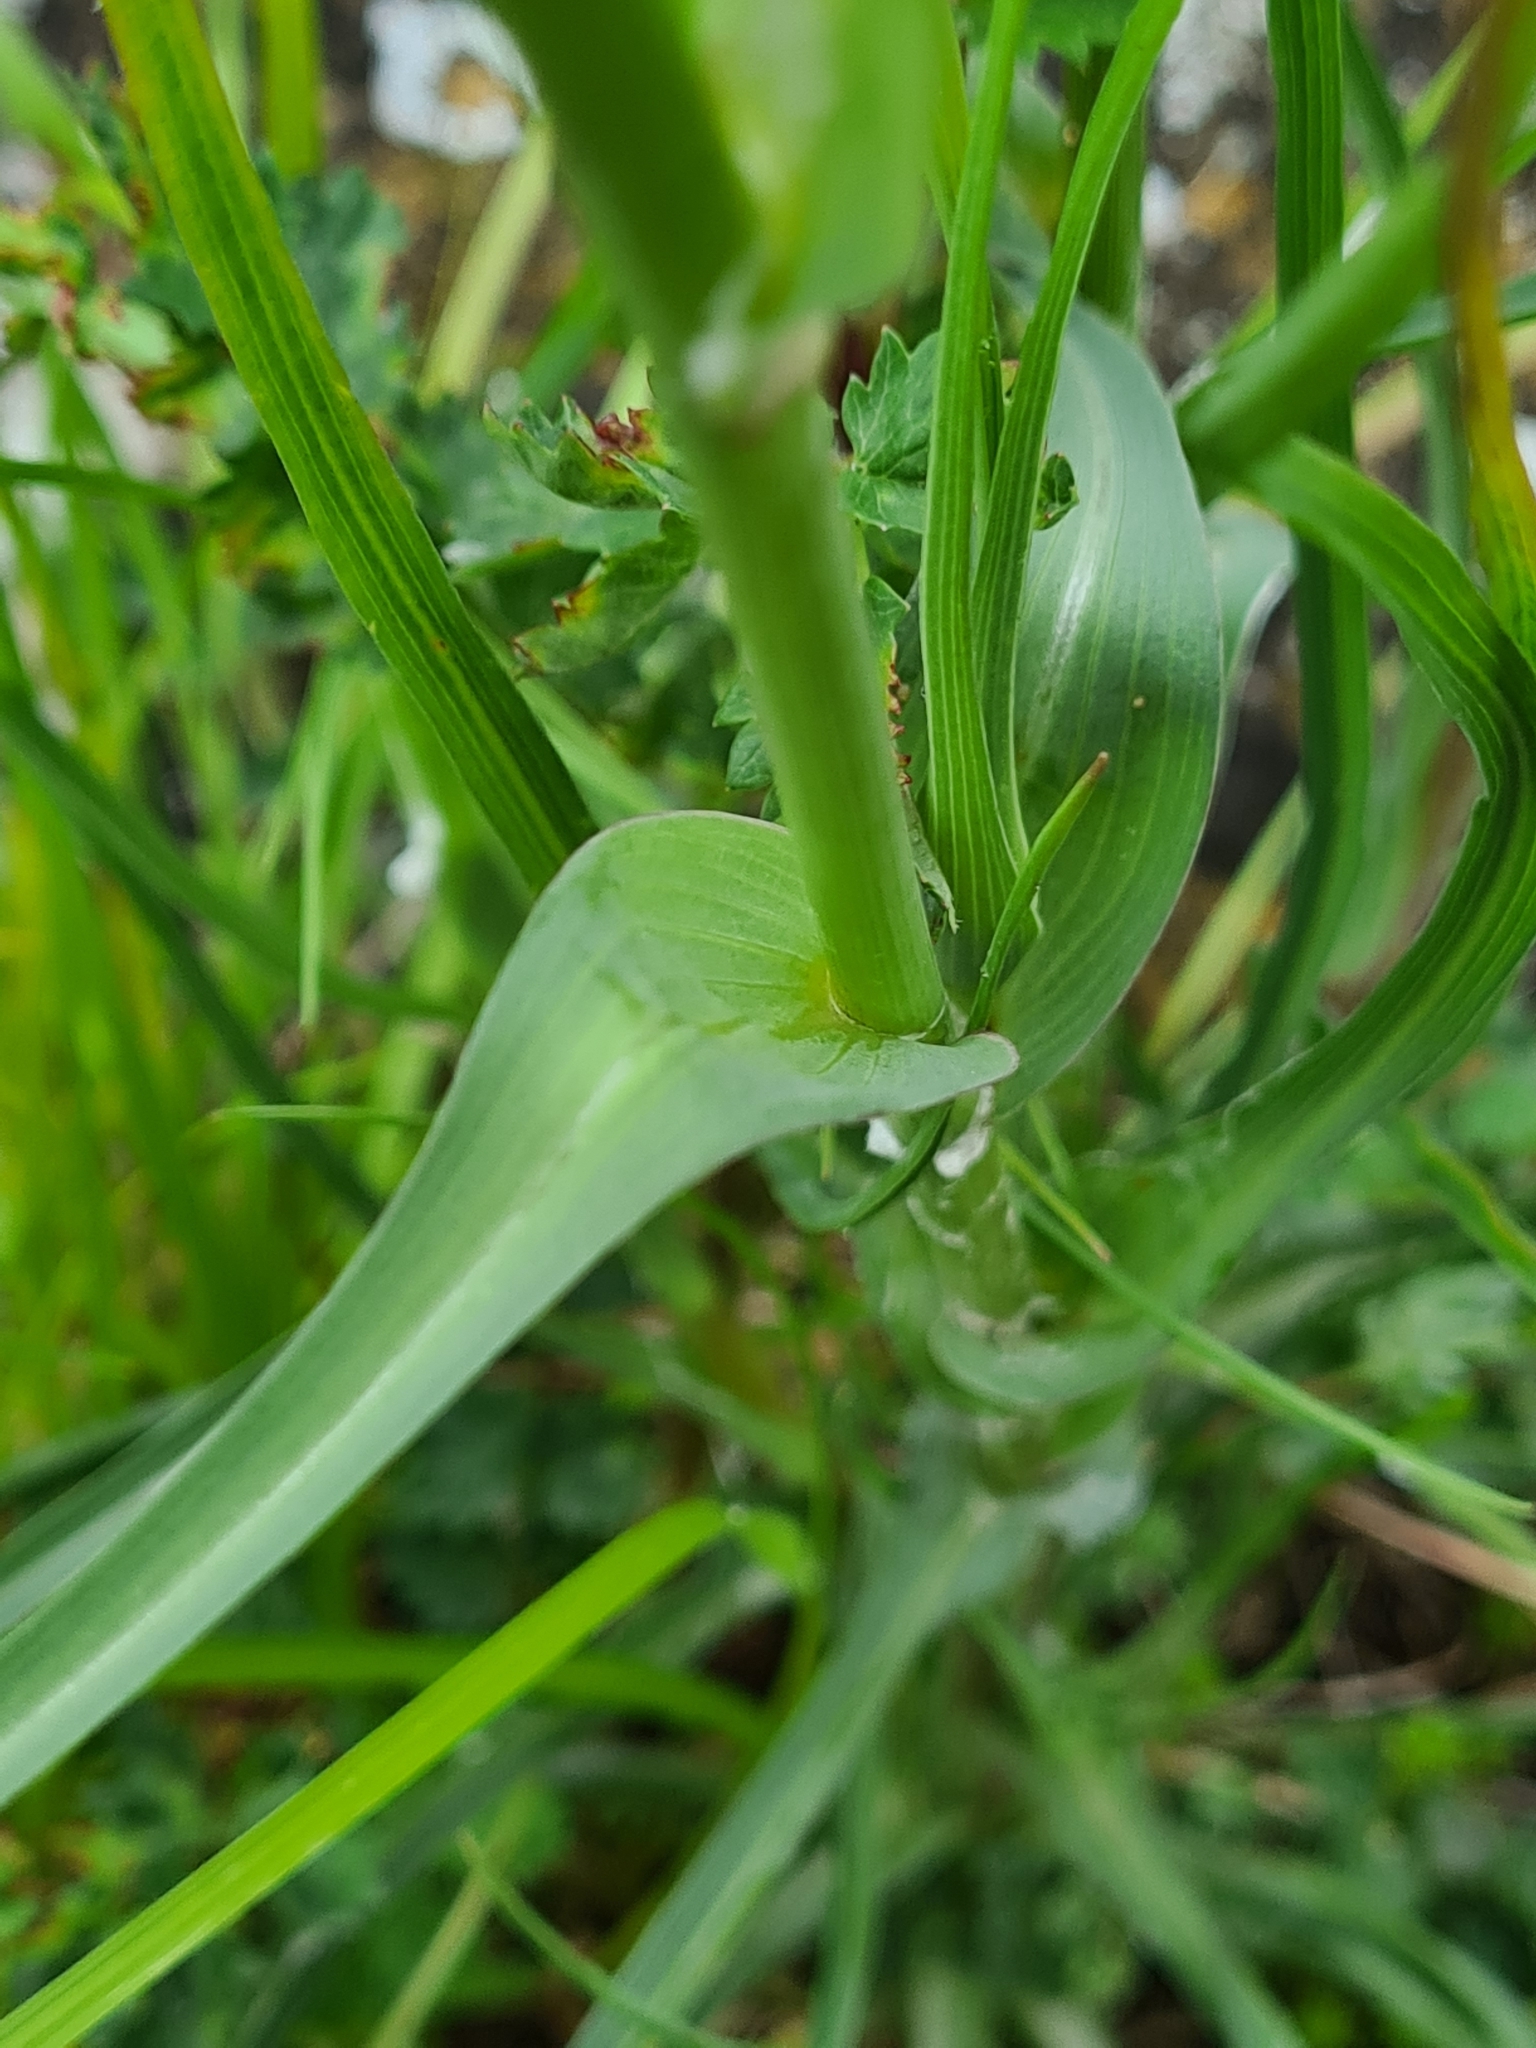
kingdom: Plantae
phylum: Tracheophyta
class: Magnoliopsida
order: Asterales
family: Asteraceae
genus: Tragopogon
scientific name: Tragopogon dubius
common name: Yellow salsify
